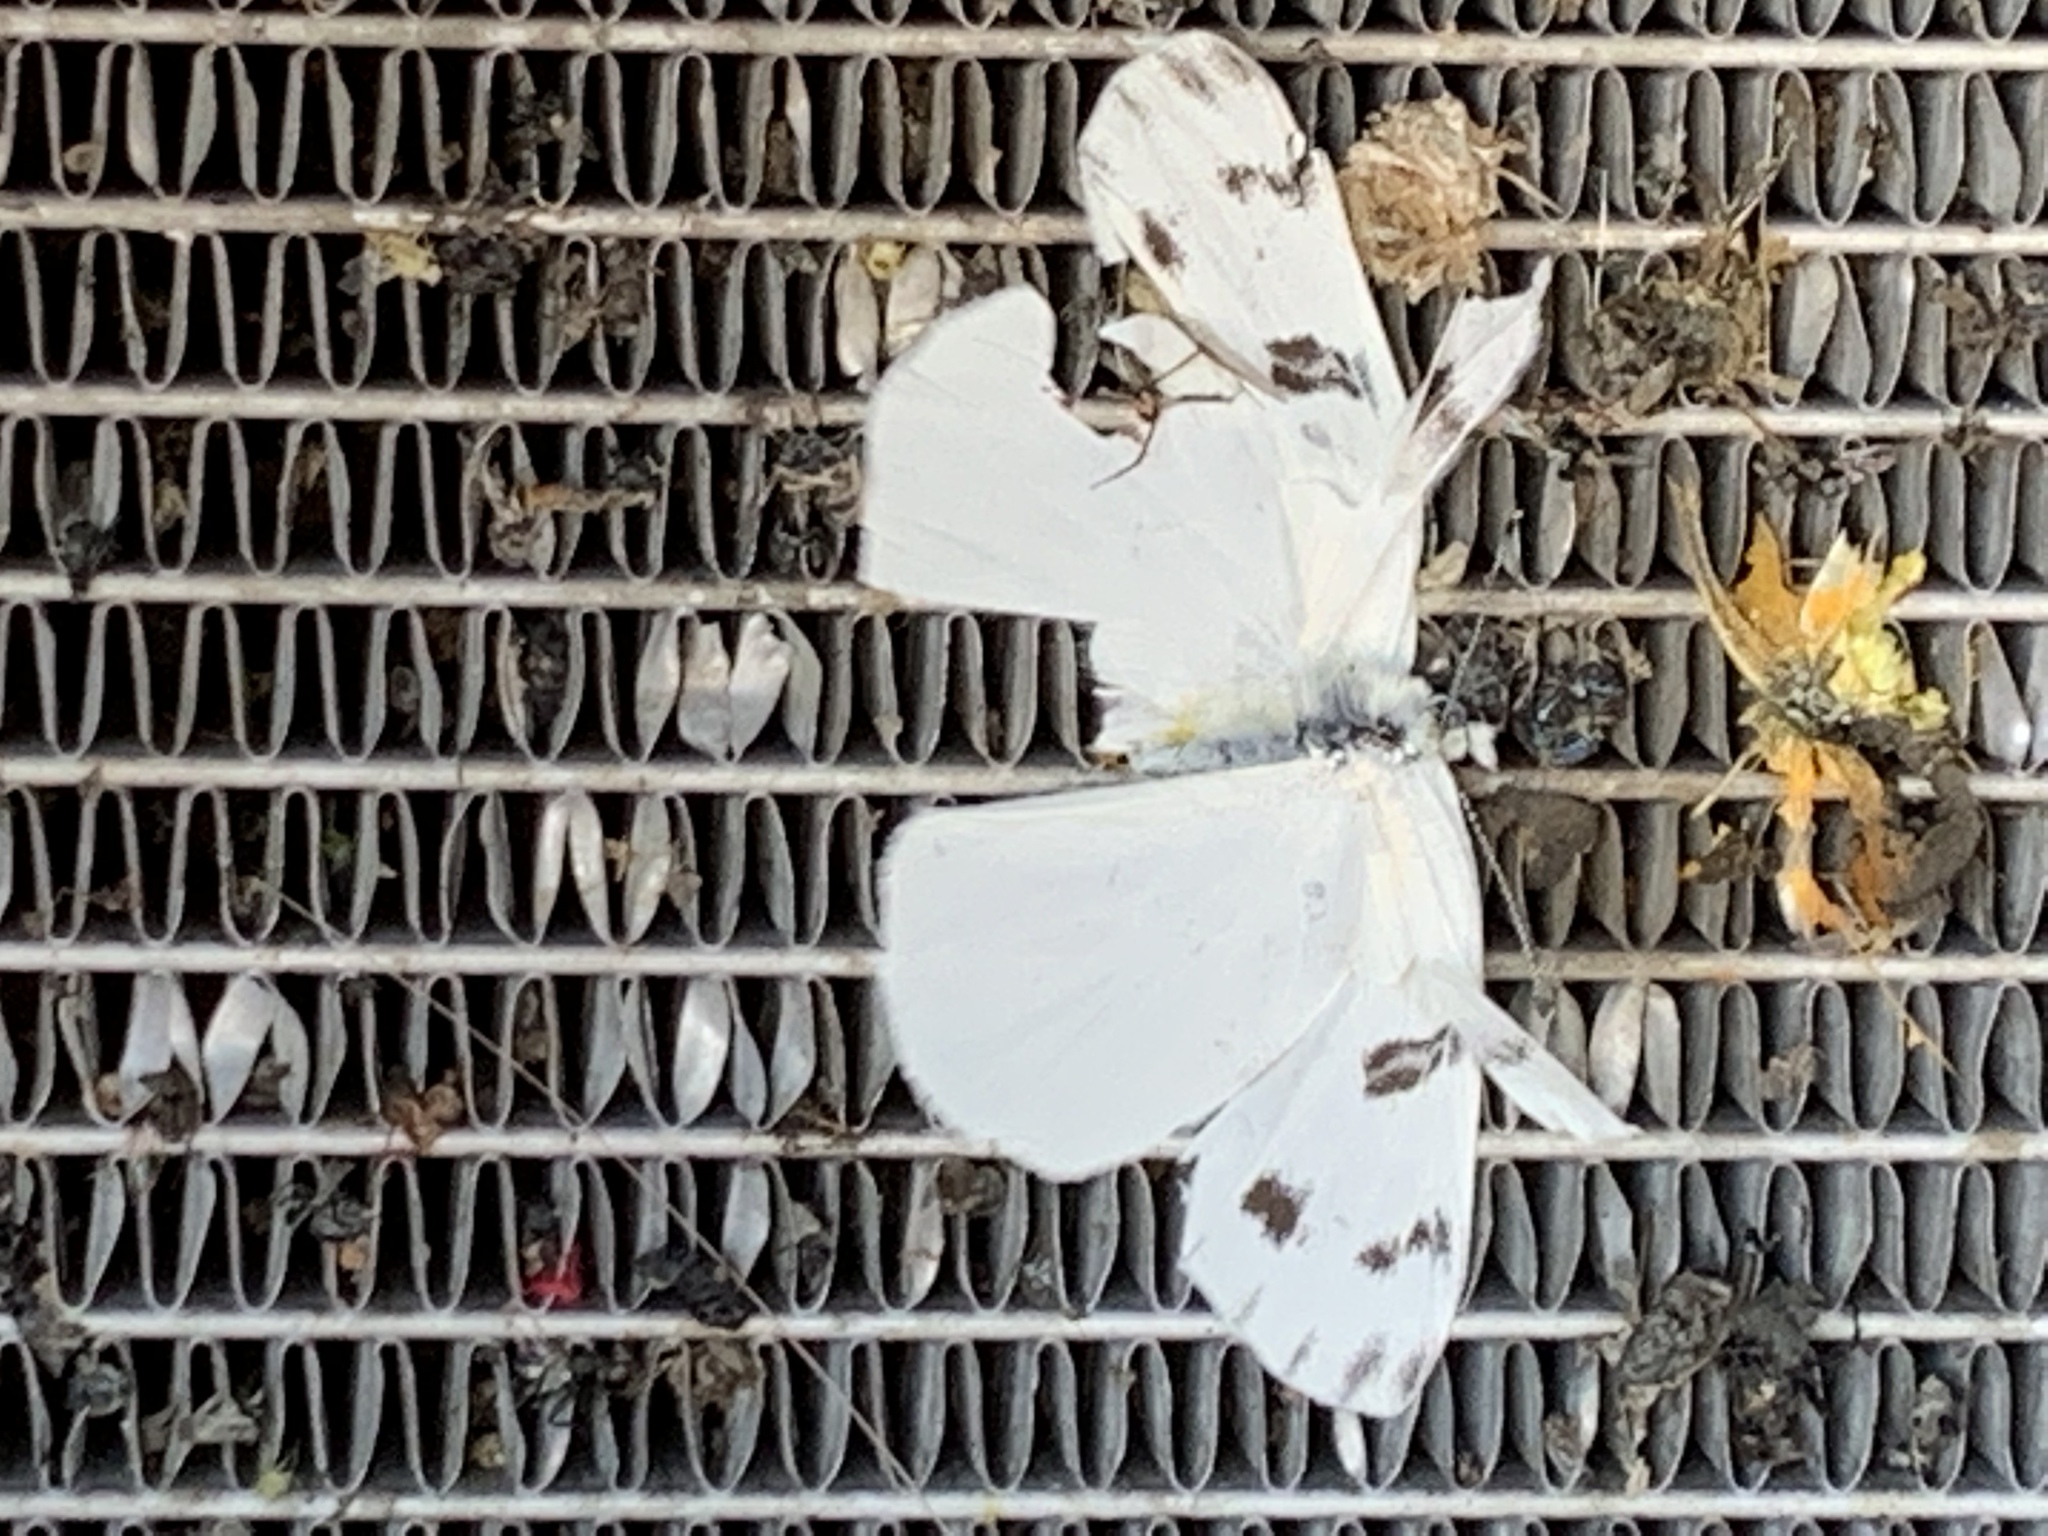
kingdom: Animalia
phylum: Arthropoda
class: Insecta
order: Lepidoptera
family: Pieridae
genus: Pontia
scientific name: Pontia protodice
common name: Checkered white
